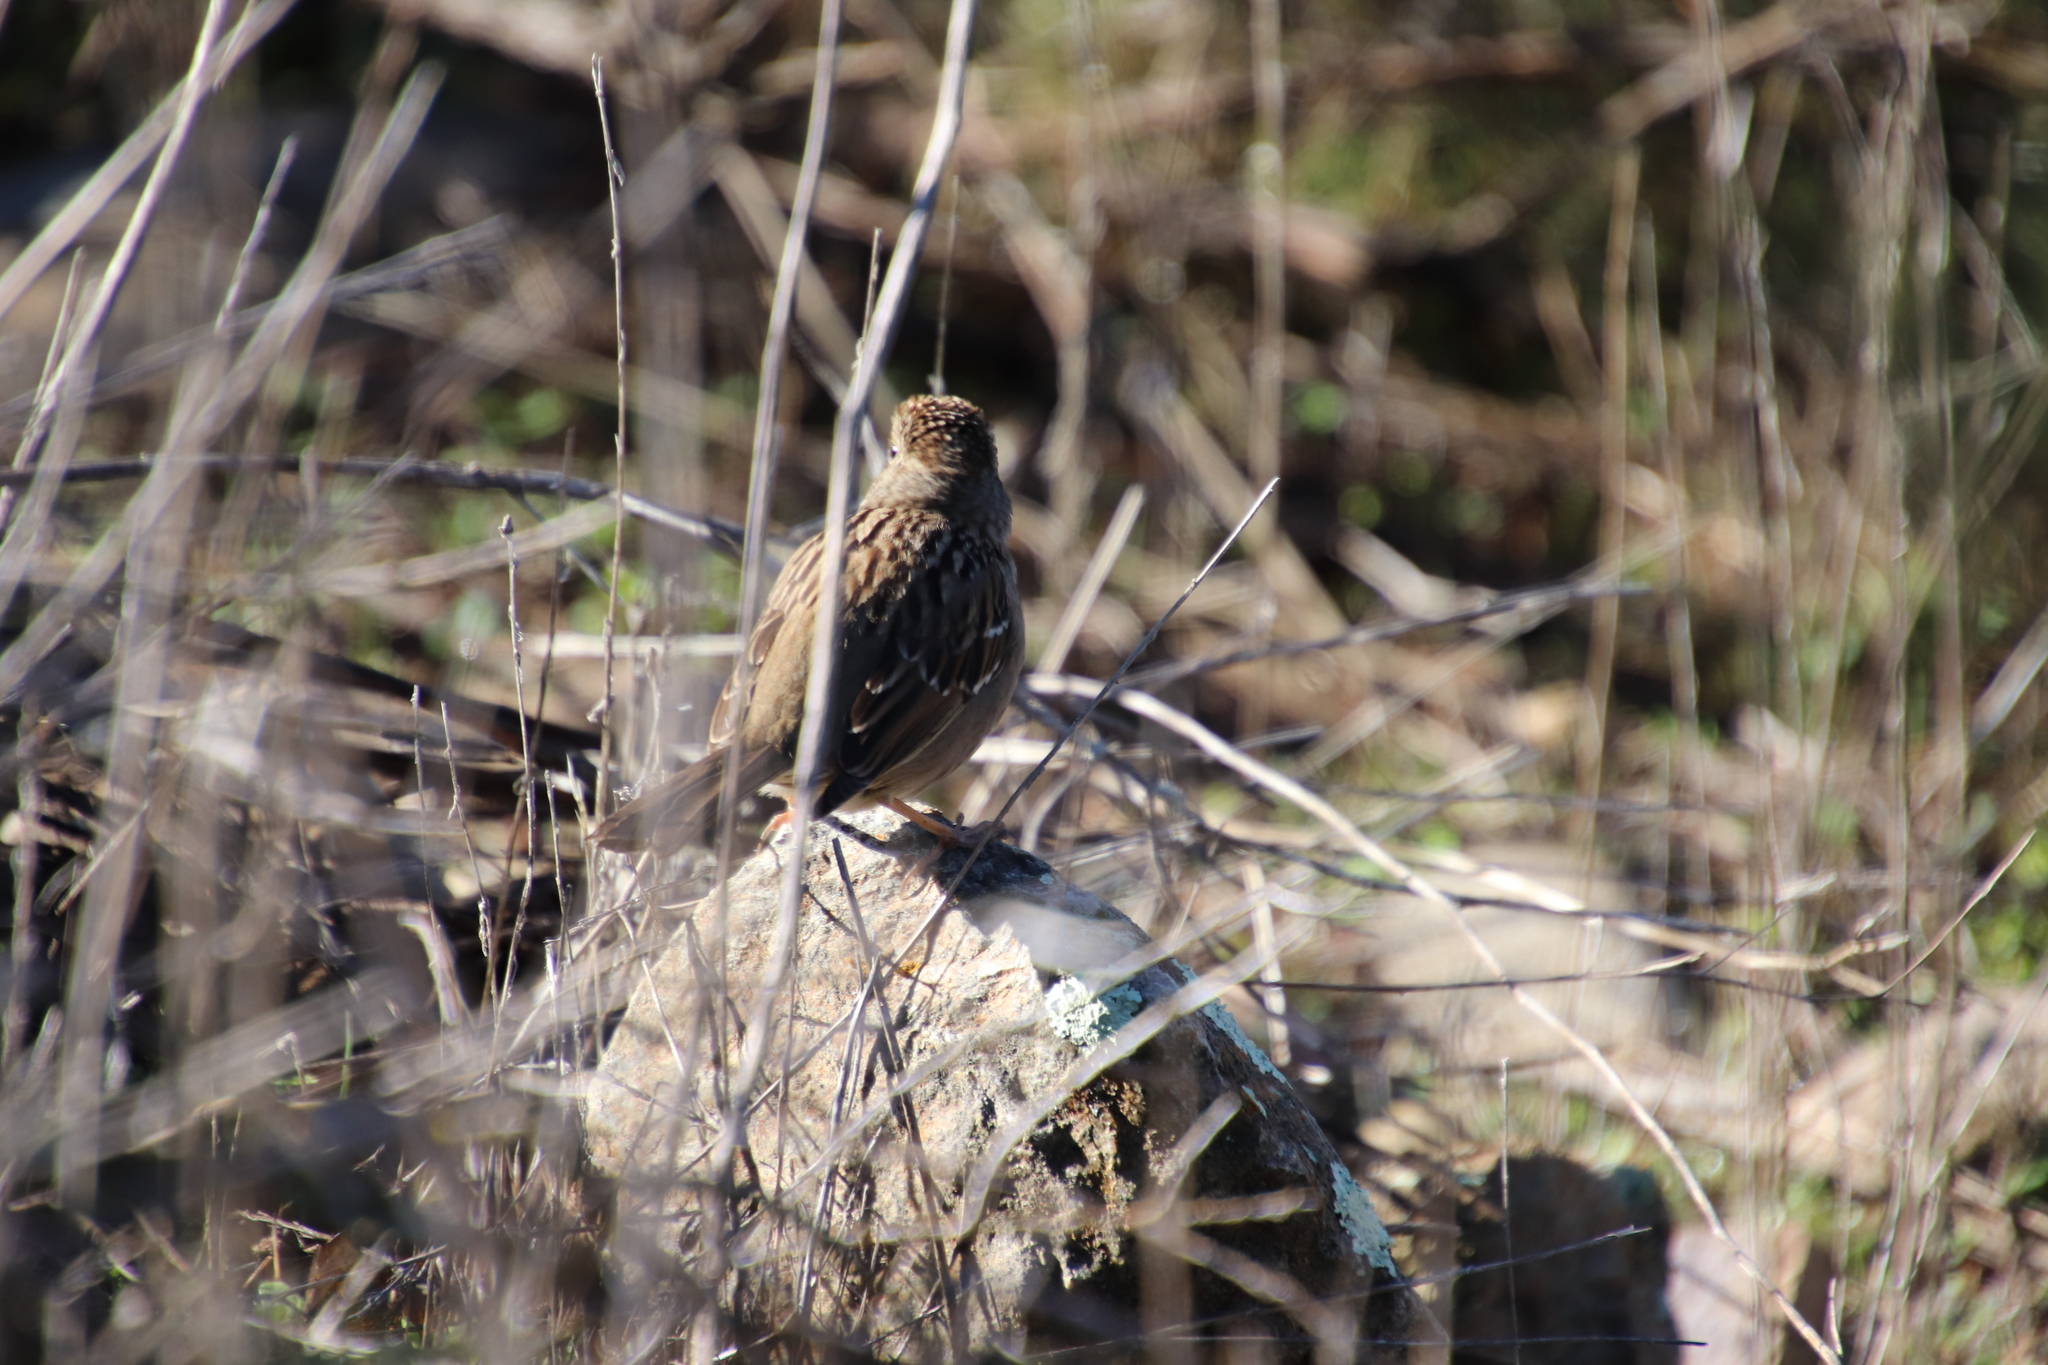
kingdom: Animalia
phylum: Chordata
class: Aves
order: Passeriformes
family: Passerellidae
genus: Zonotrichia
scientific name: Zonotrichia atricapilla
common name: Golden-crowned sparrow
